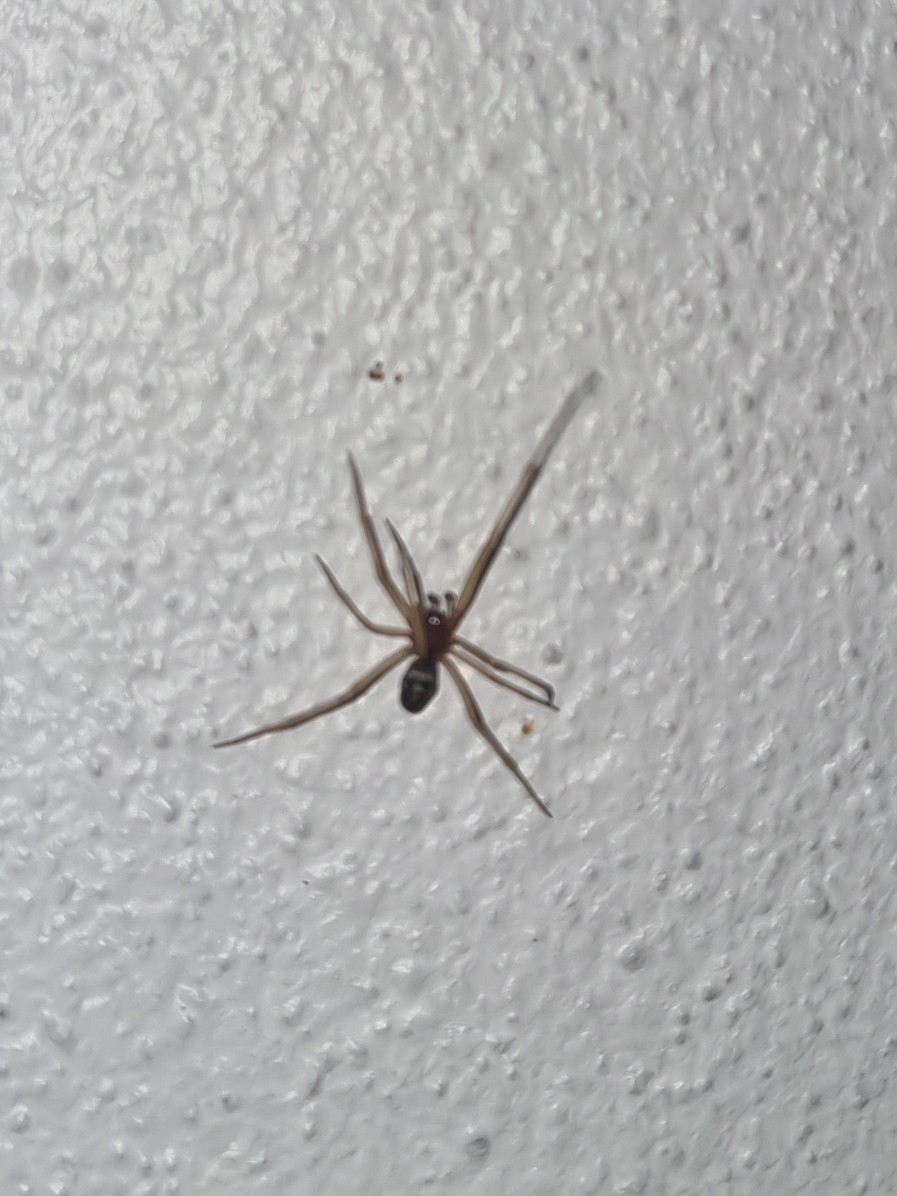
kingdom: Animalia
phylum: Arthropoda
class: Arachnida
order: Araneae
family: Theridiidae
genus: Steatoda
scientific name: Steatoda grossa
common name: False black widow
